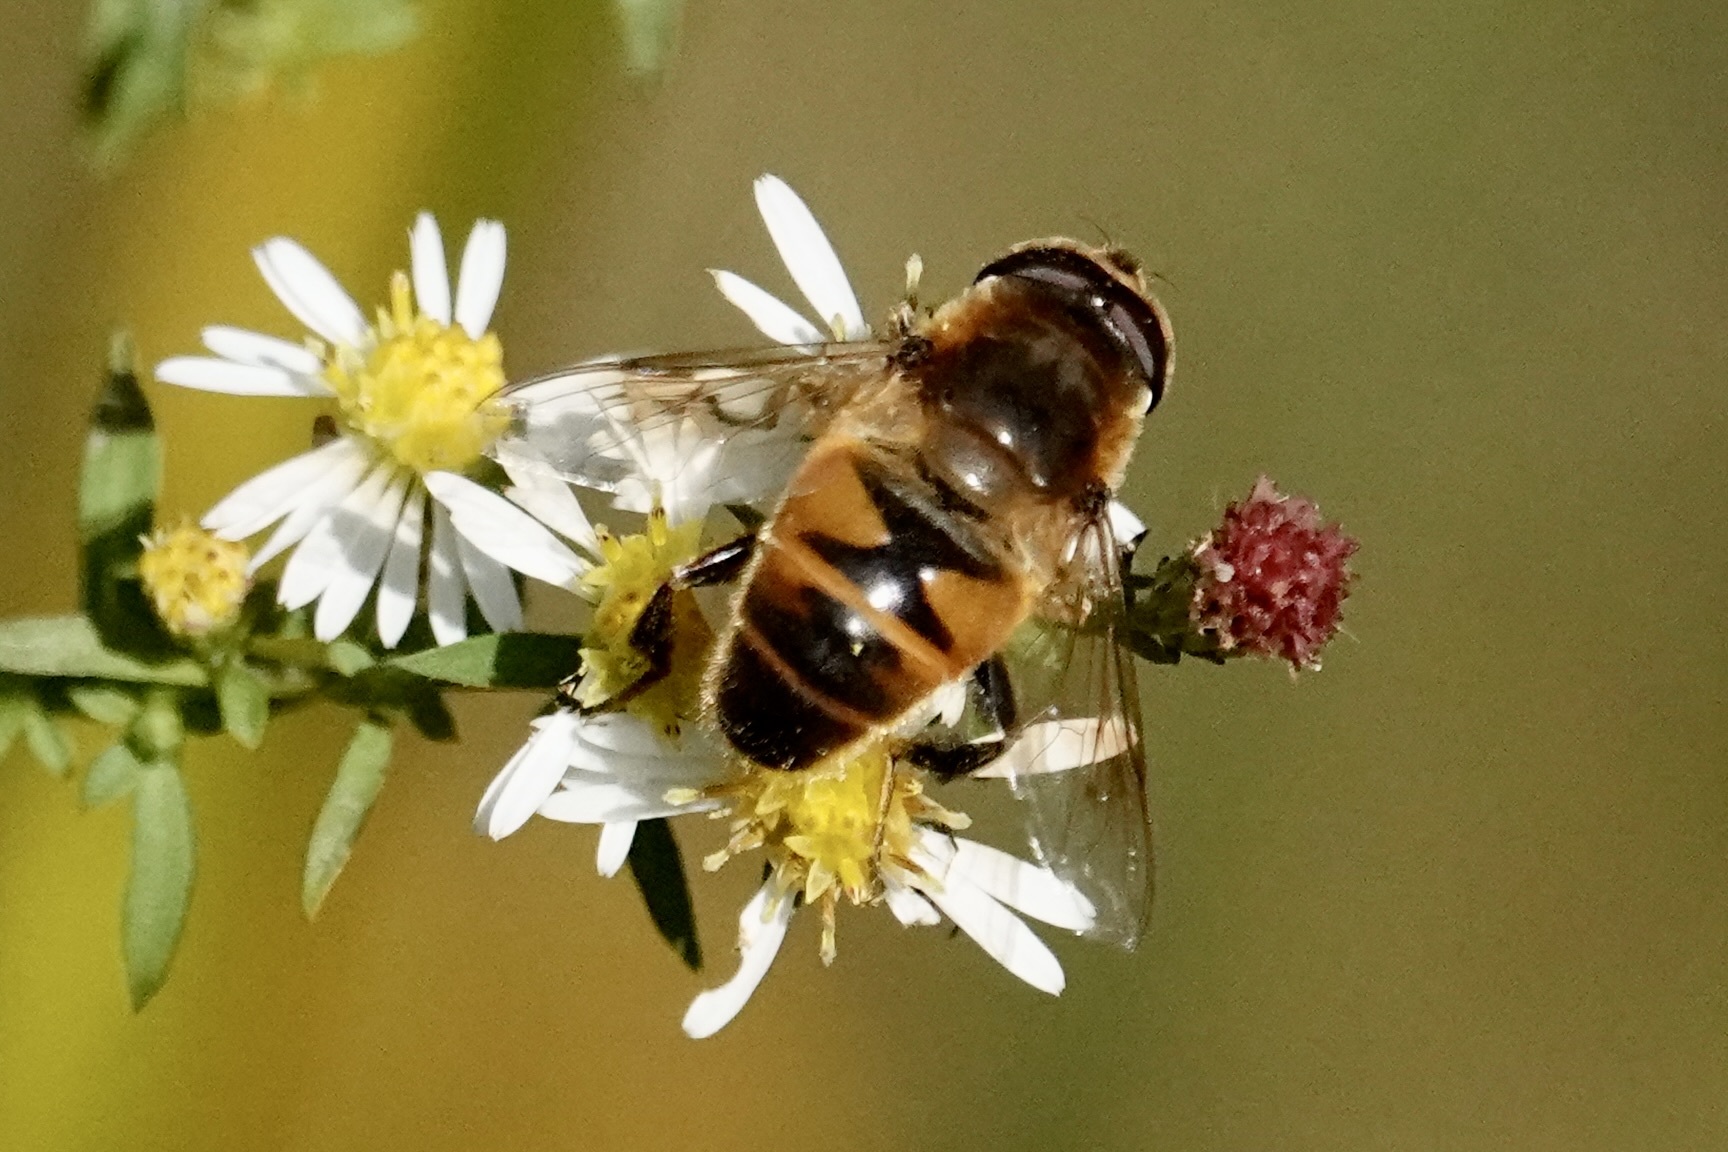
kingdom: Animalia
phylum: Arthropoda
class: Insecta
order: Diptera
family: Syrphidae
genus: Eristalis
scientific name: Eristalis tenax
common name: Drone fly
